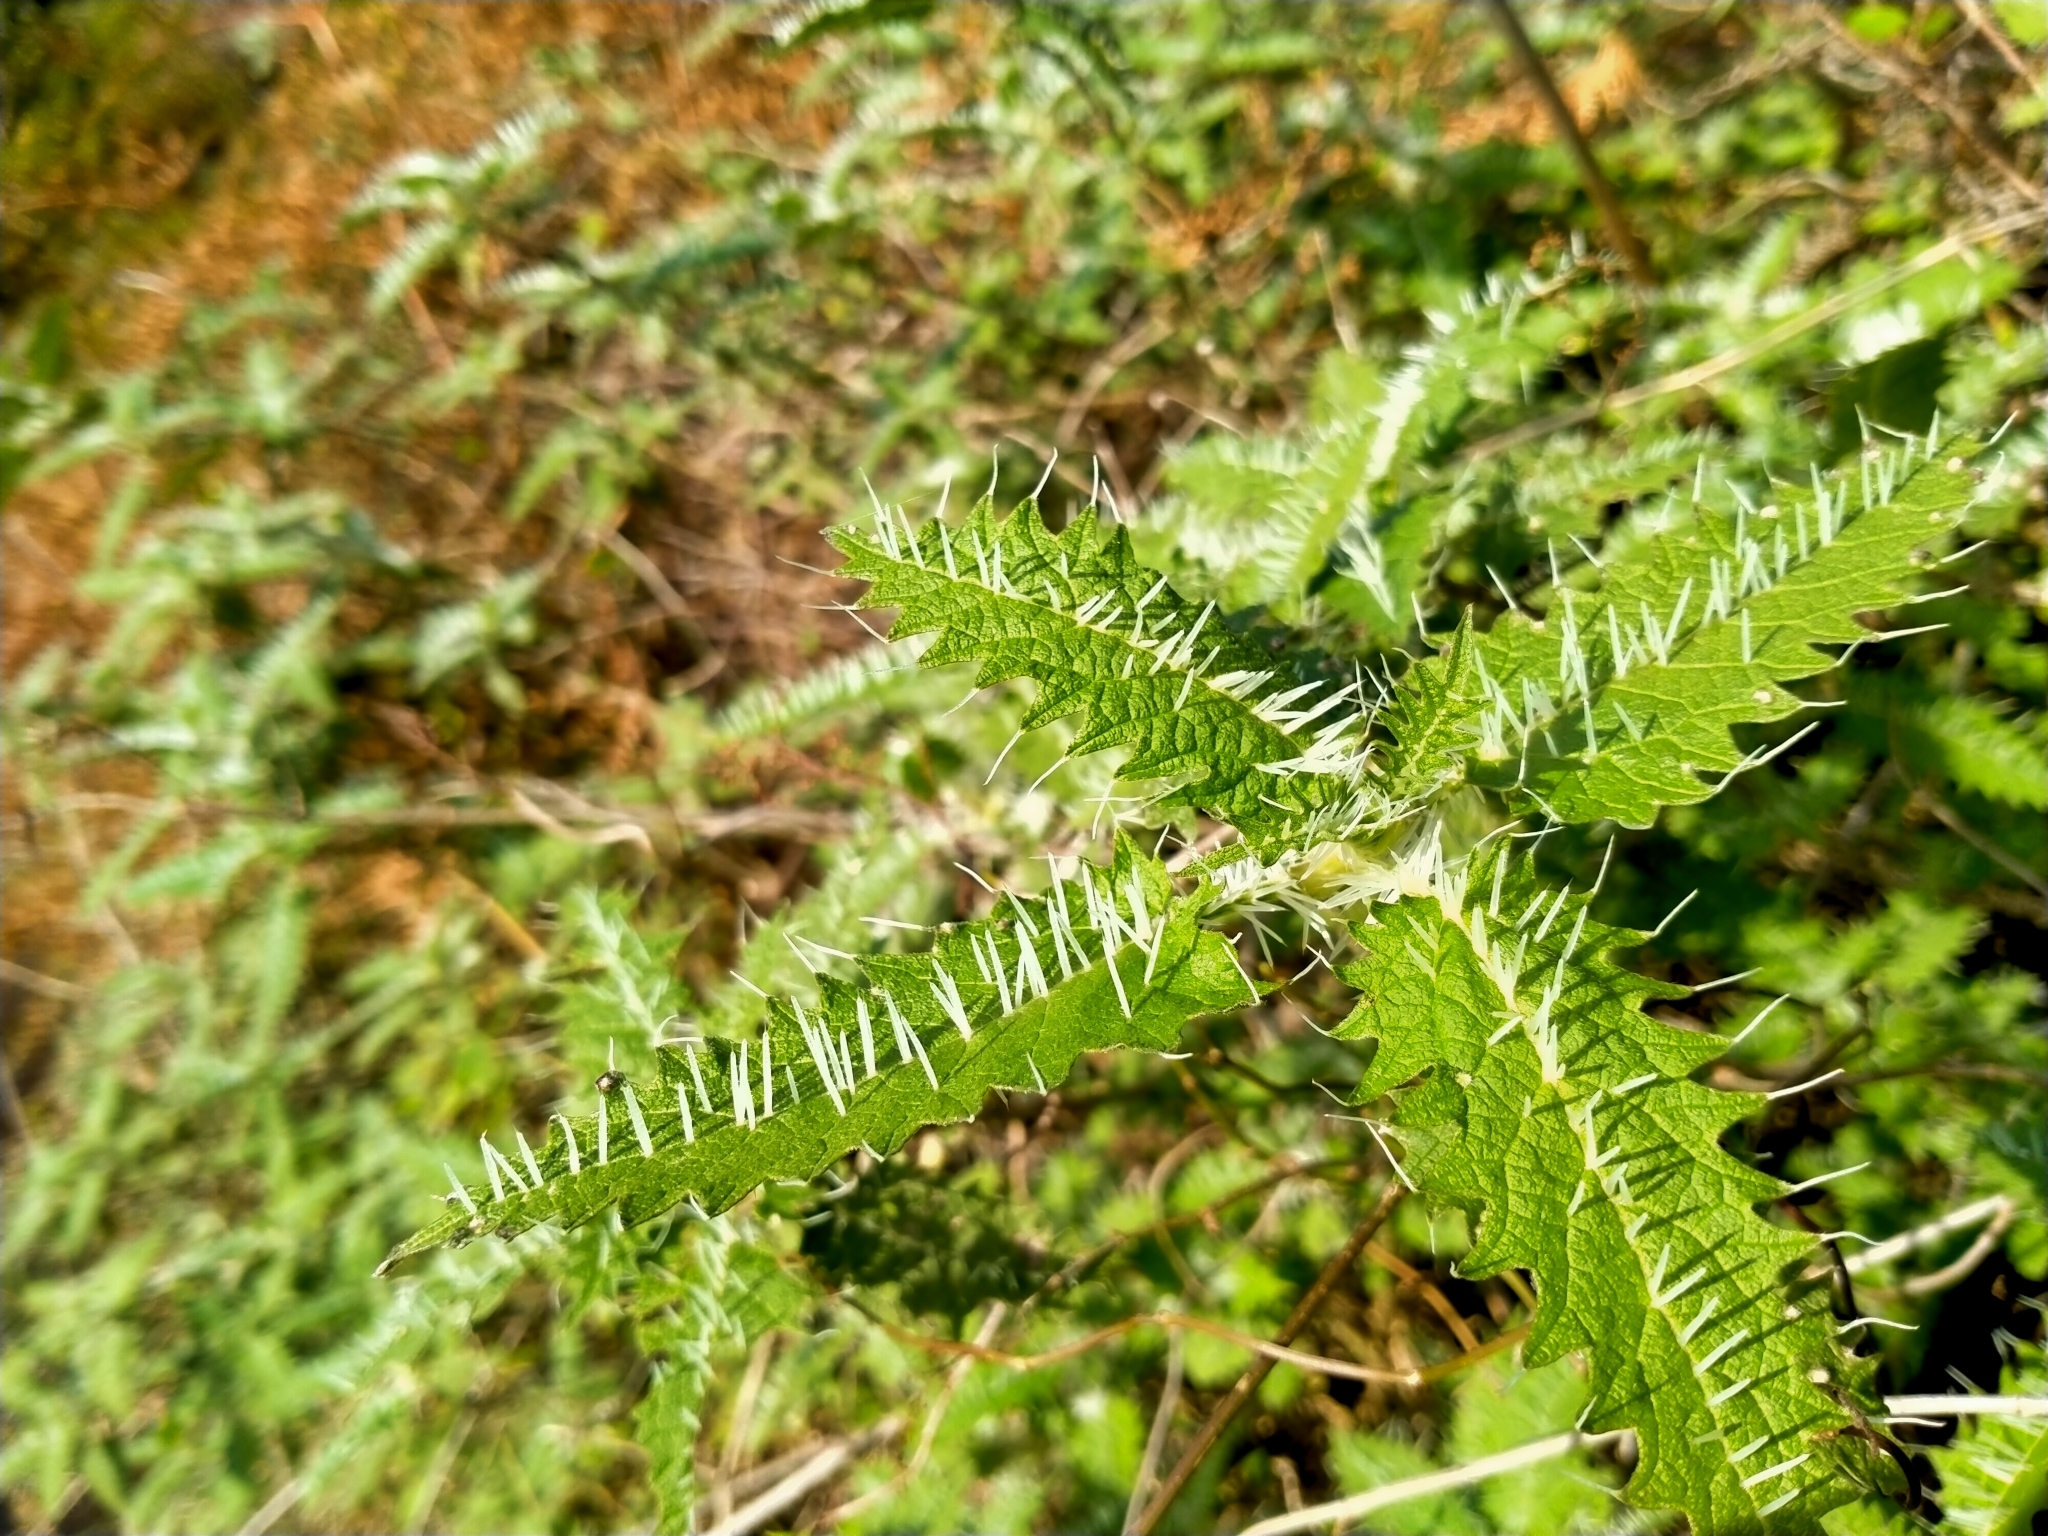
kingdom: Plantae
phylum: Tracheophyta
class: Magnoliopsida
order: Rosales
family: Urticaceae
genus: Urtica
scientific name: Urtica ferox
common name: Tree nettle
